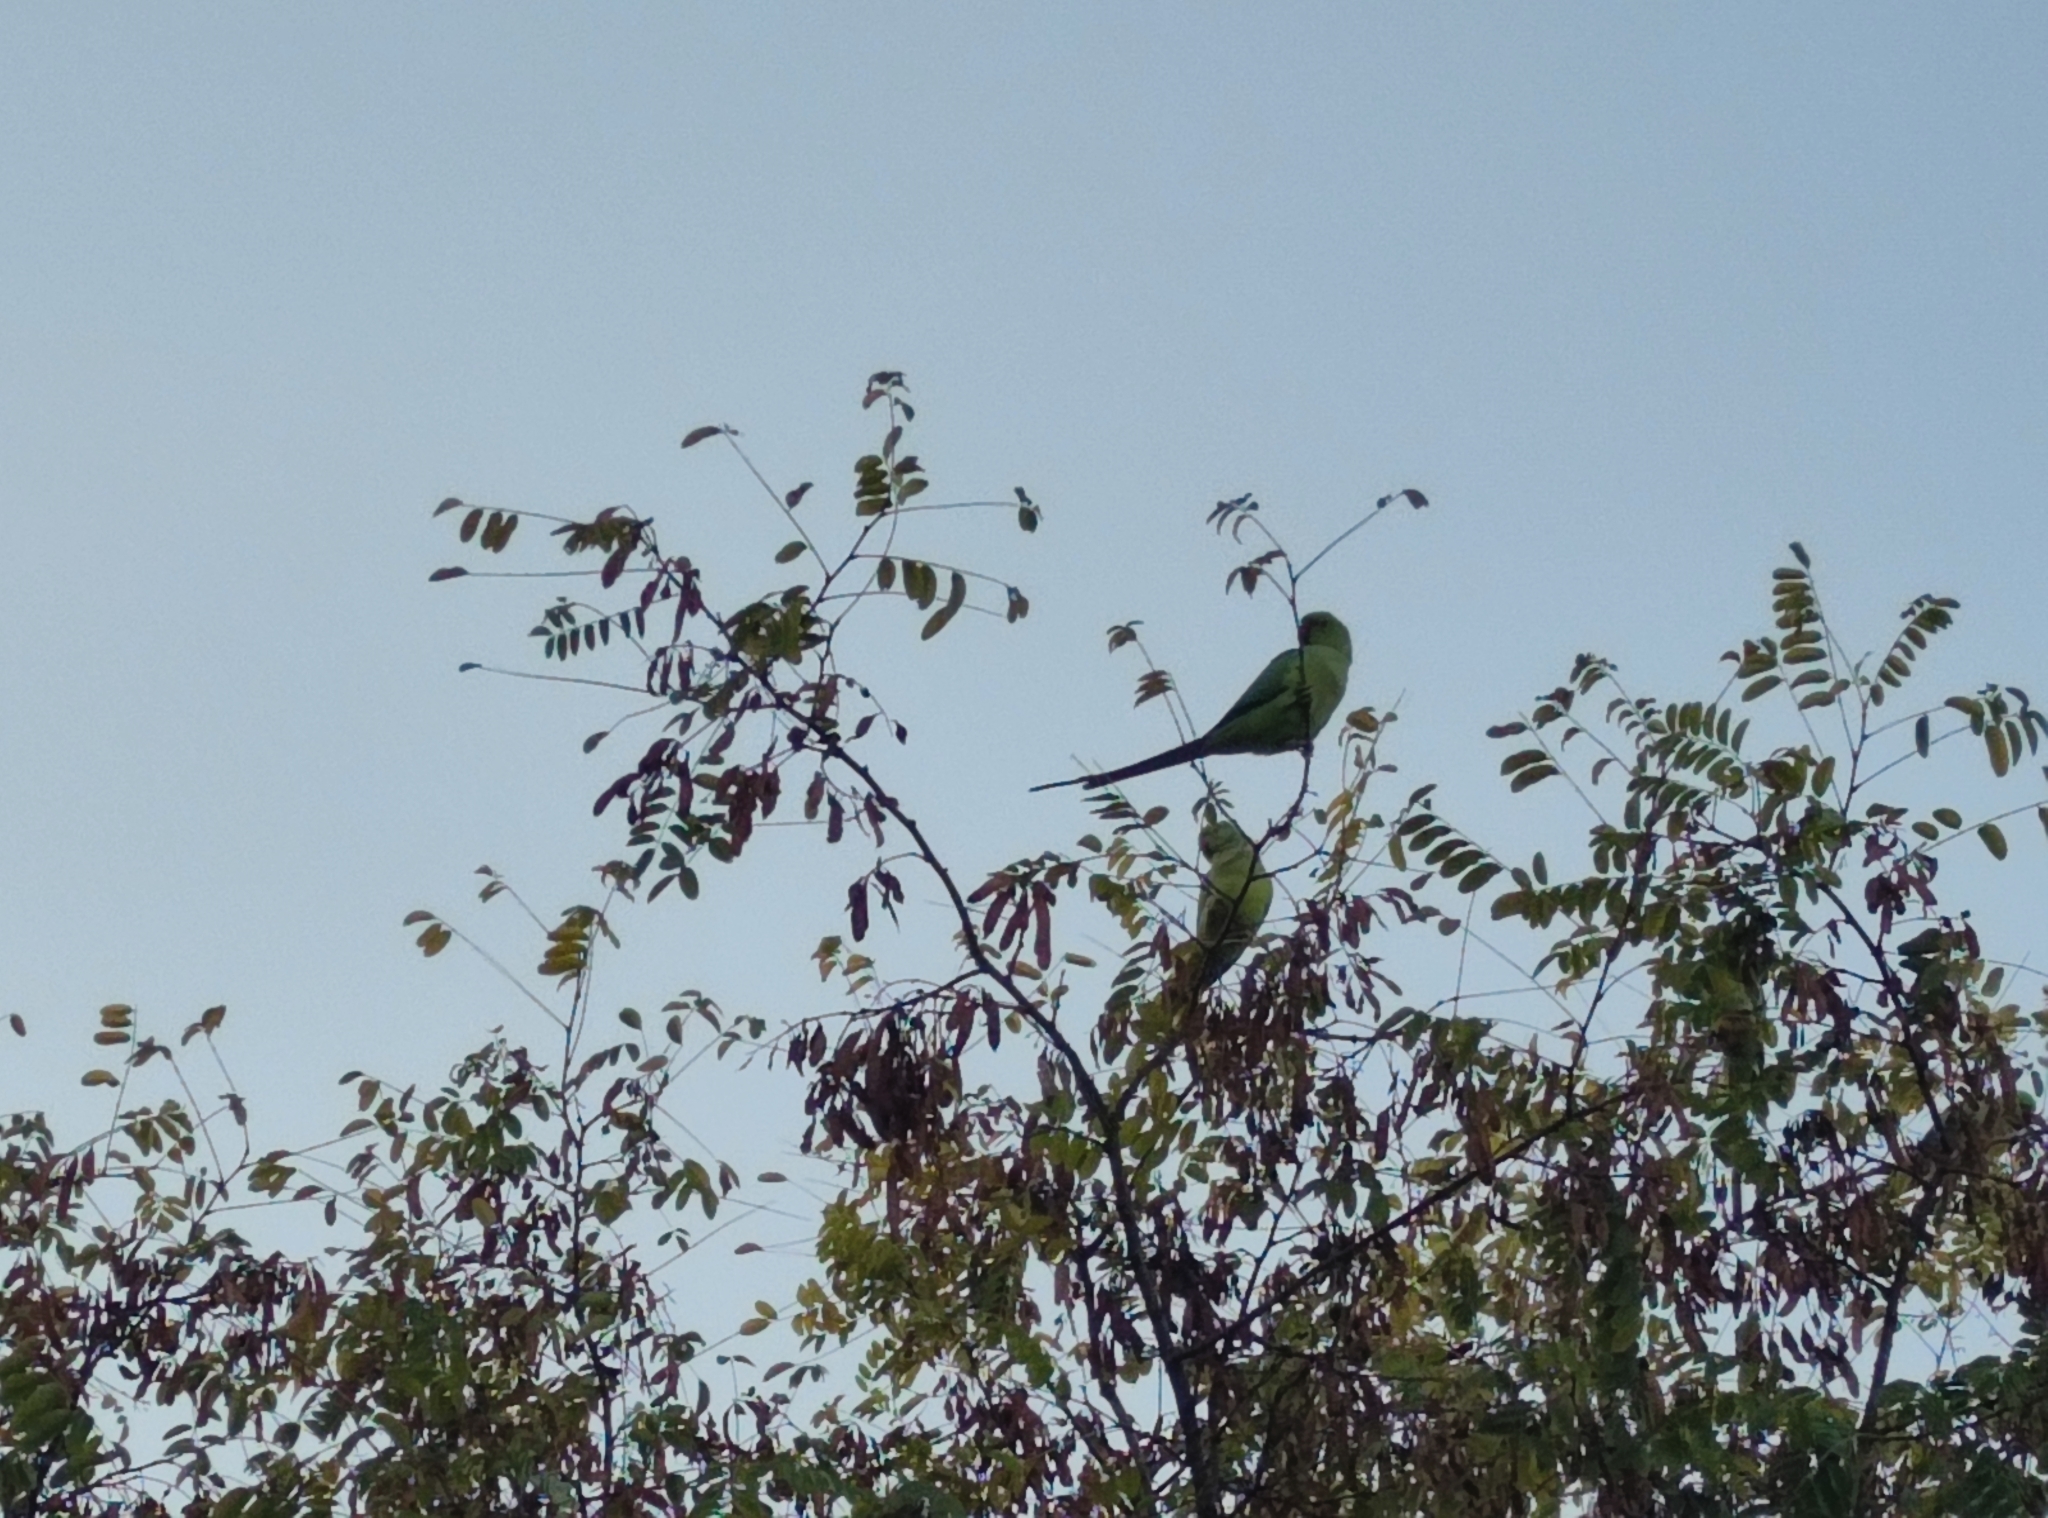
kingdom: Animalia
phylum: Chordata
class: Aves
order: Psittaciformes
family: Psittacidae
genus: Psittacula
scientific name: Psittacula krameri
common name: Rose-ringed parakeet
